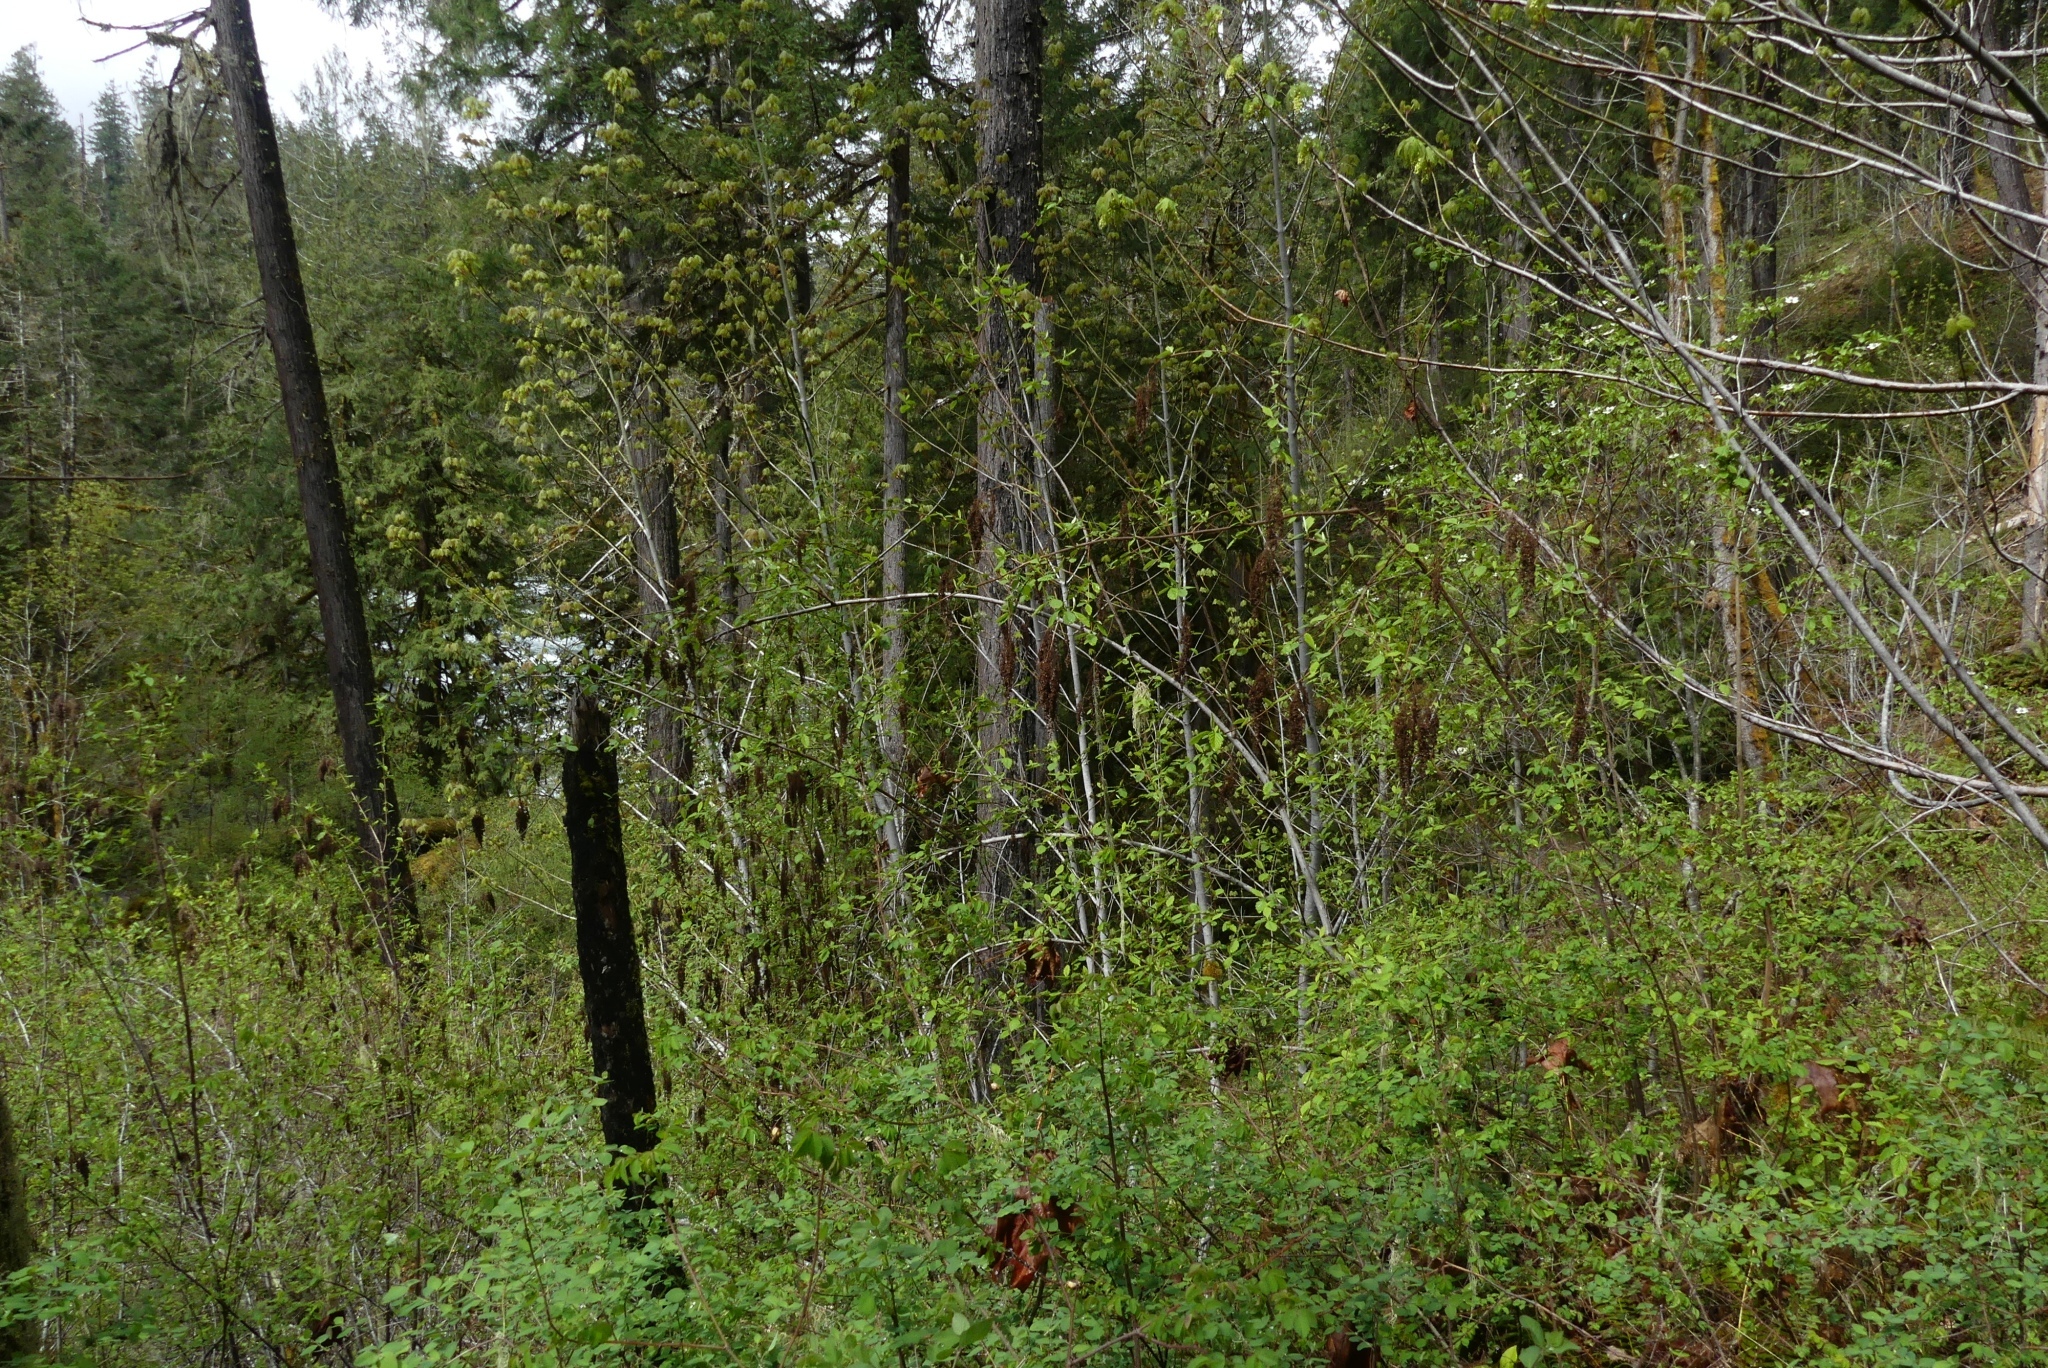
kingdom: Plantae
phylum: Tracheophyta
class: Magnoliopsida
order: Rosales
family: Rosaceae
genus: Holodiscus
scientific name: Holodiscus discolor
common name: Oceanspray
